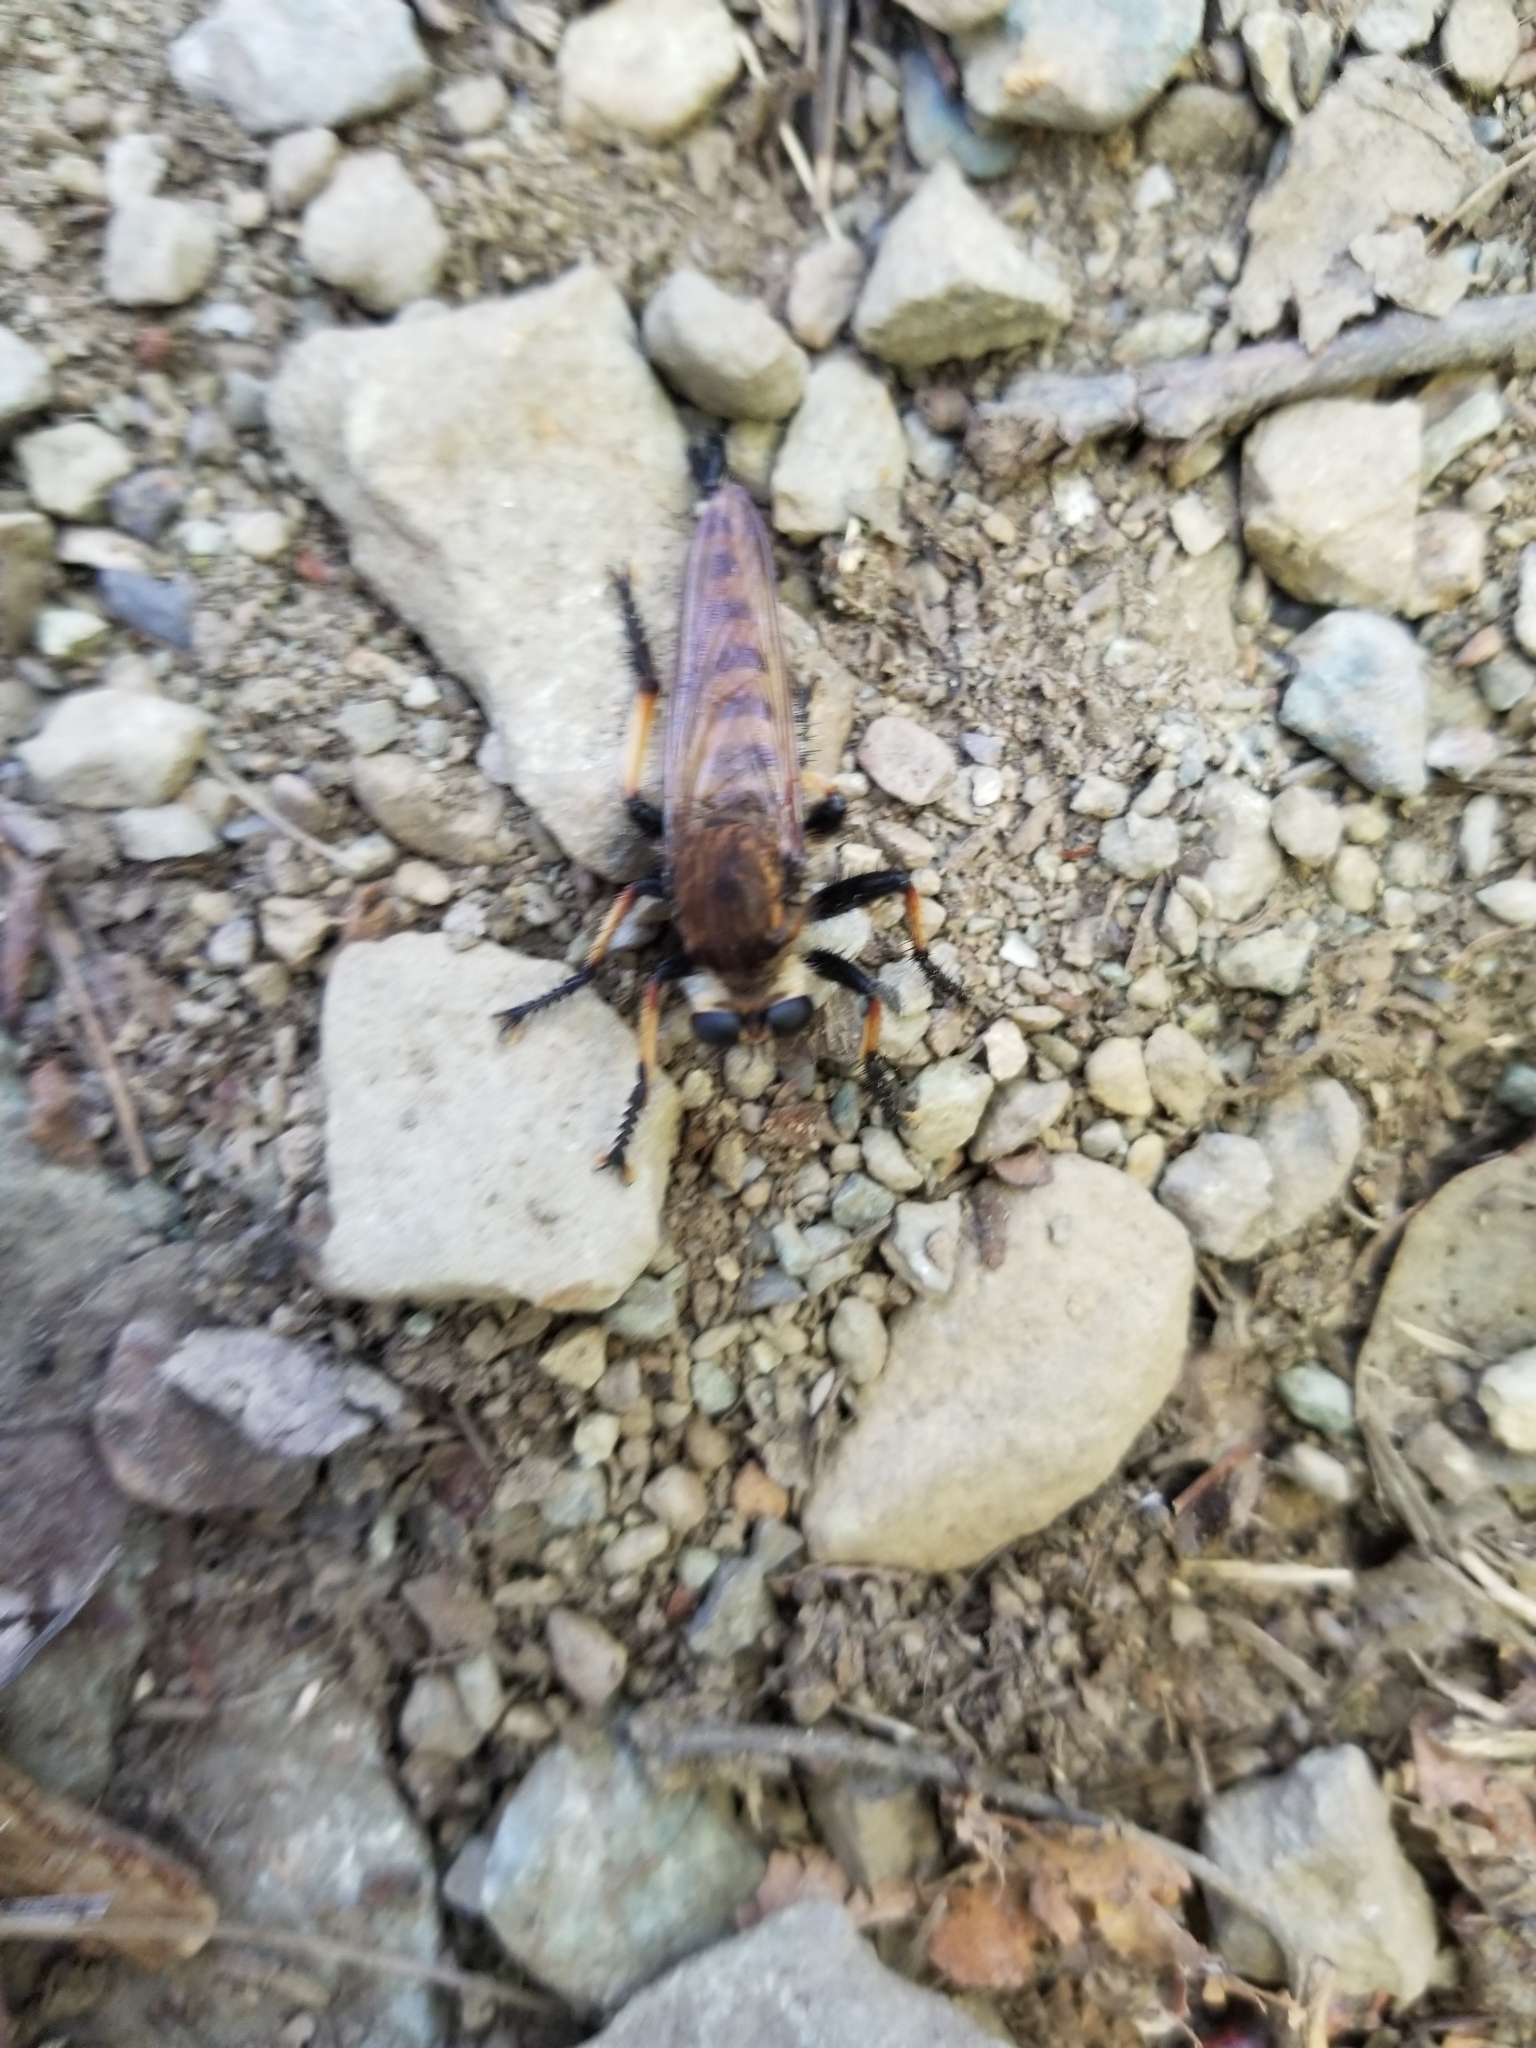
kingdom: Animalia
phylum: Arthropoda
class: Insecta
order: Diptera
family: Asilidae
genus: Promachus
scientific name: Promachus rufipes
